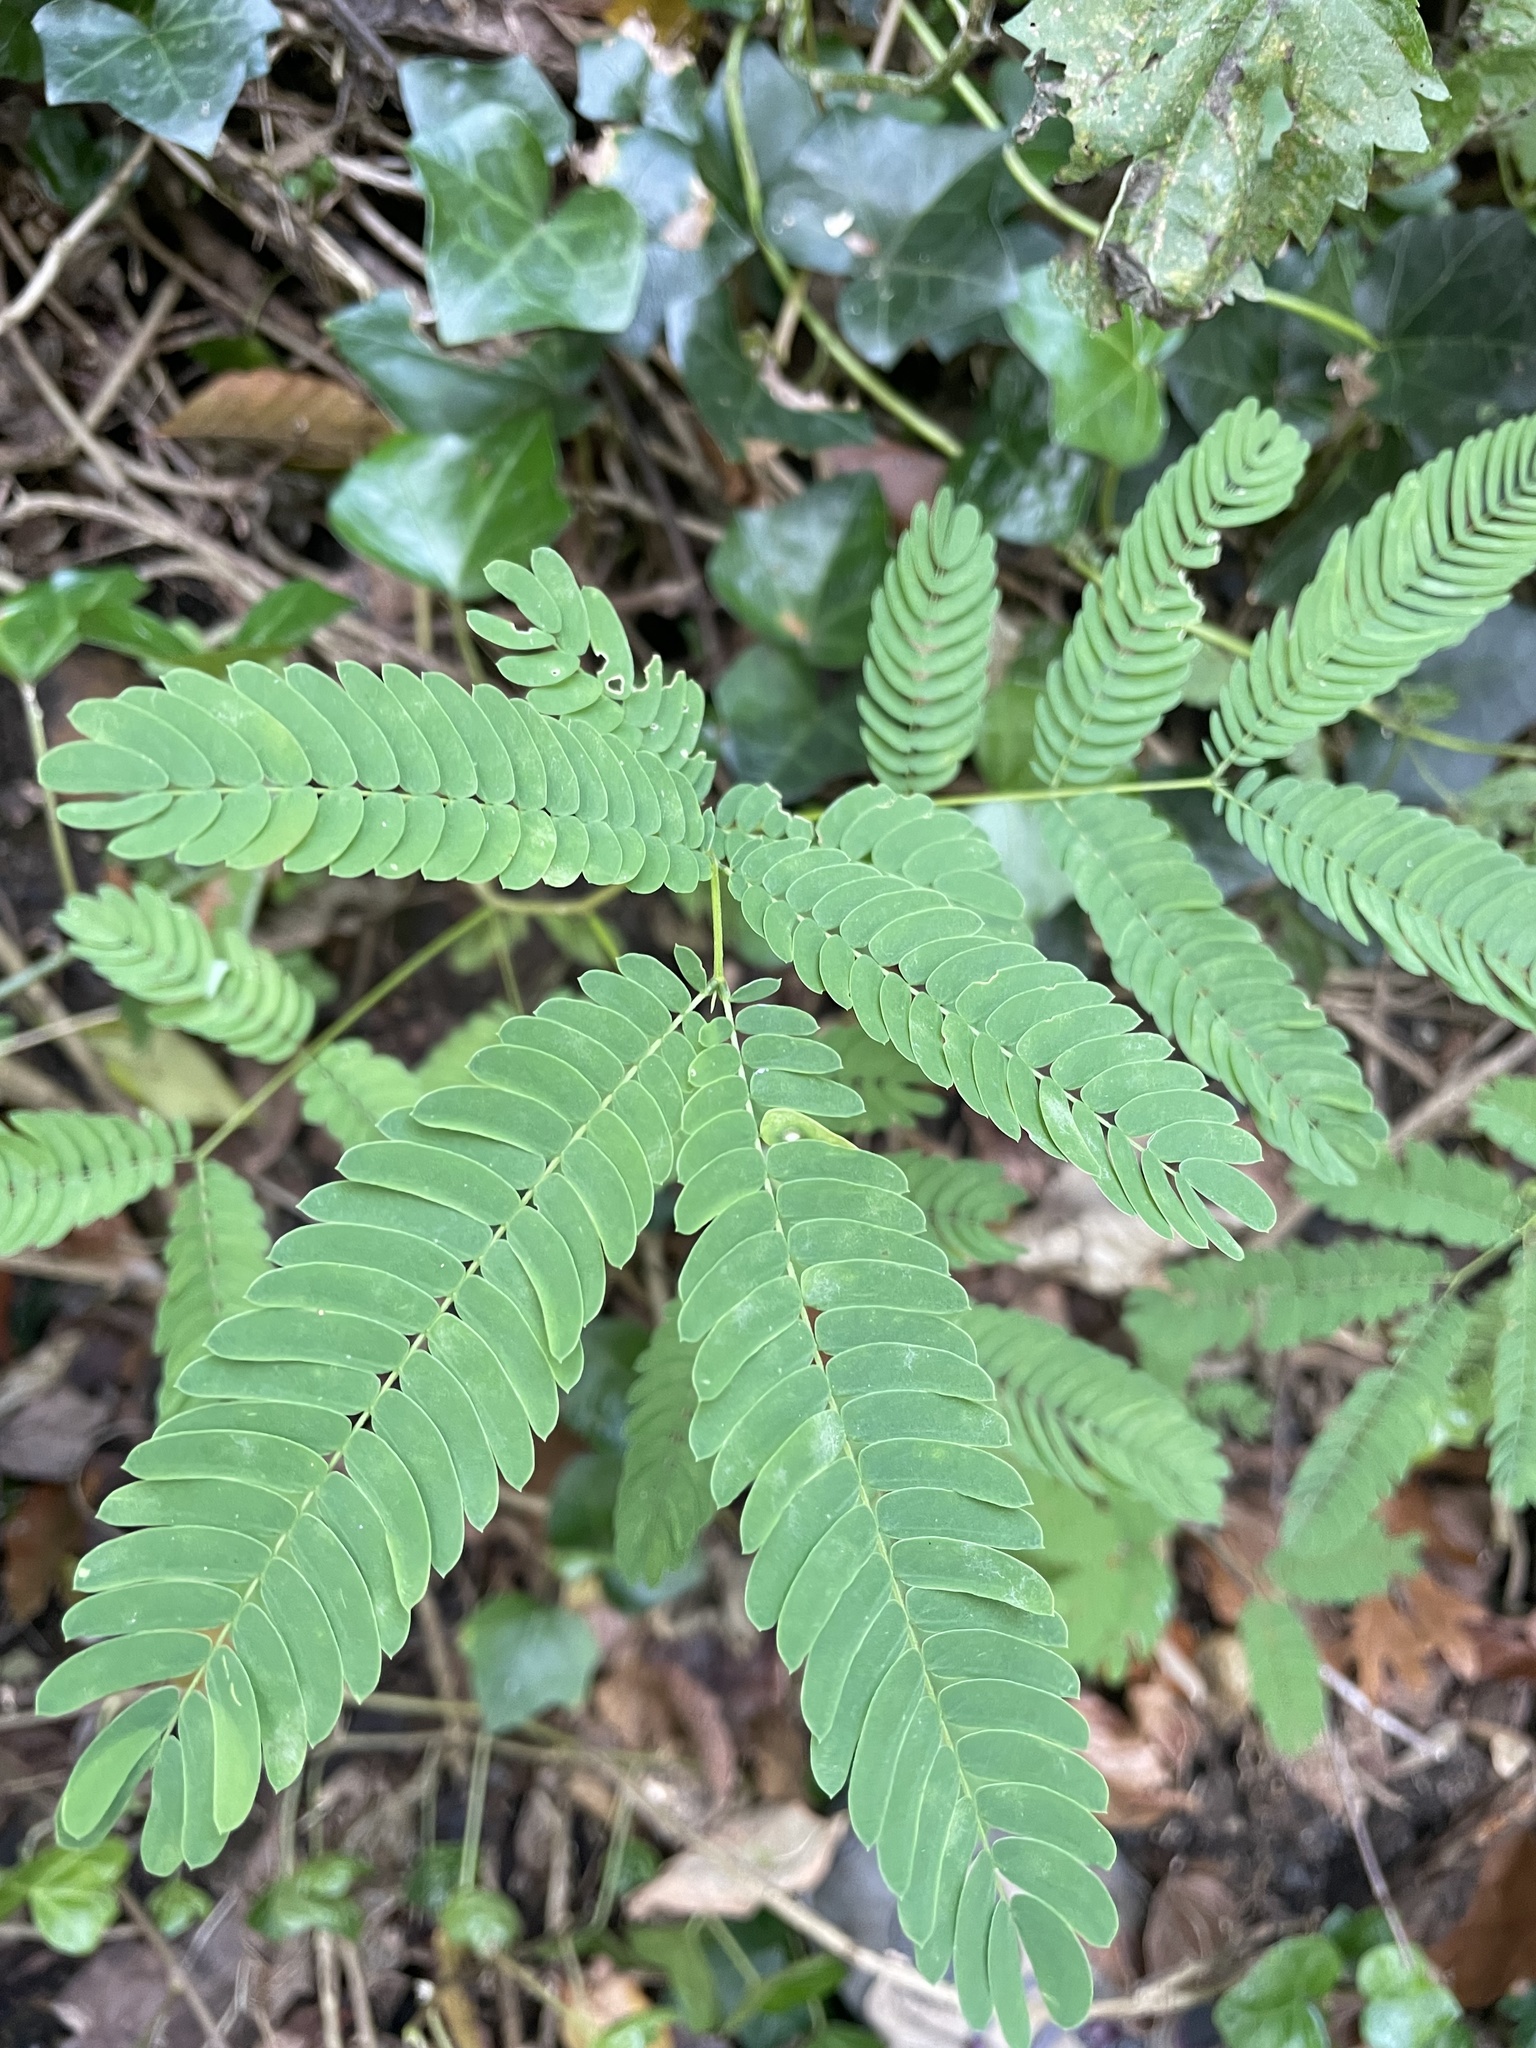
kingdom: Plantae
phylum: Tracheophyta
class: Magnoliopsida
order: Fabales
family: Fabaceae
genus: Albizia
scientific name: Albizia julibrissin
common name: Silktree
